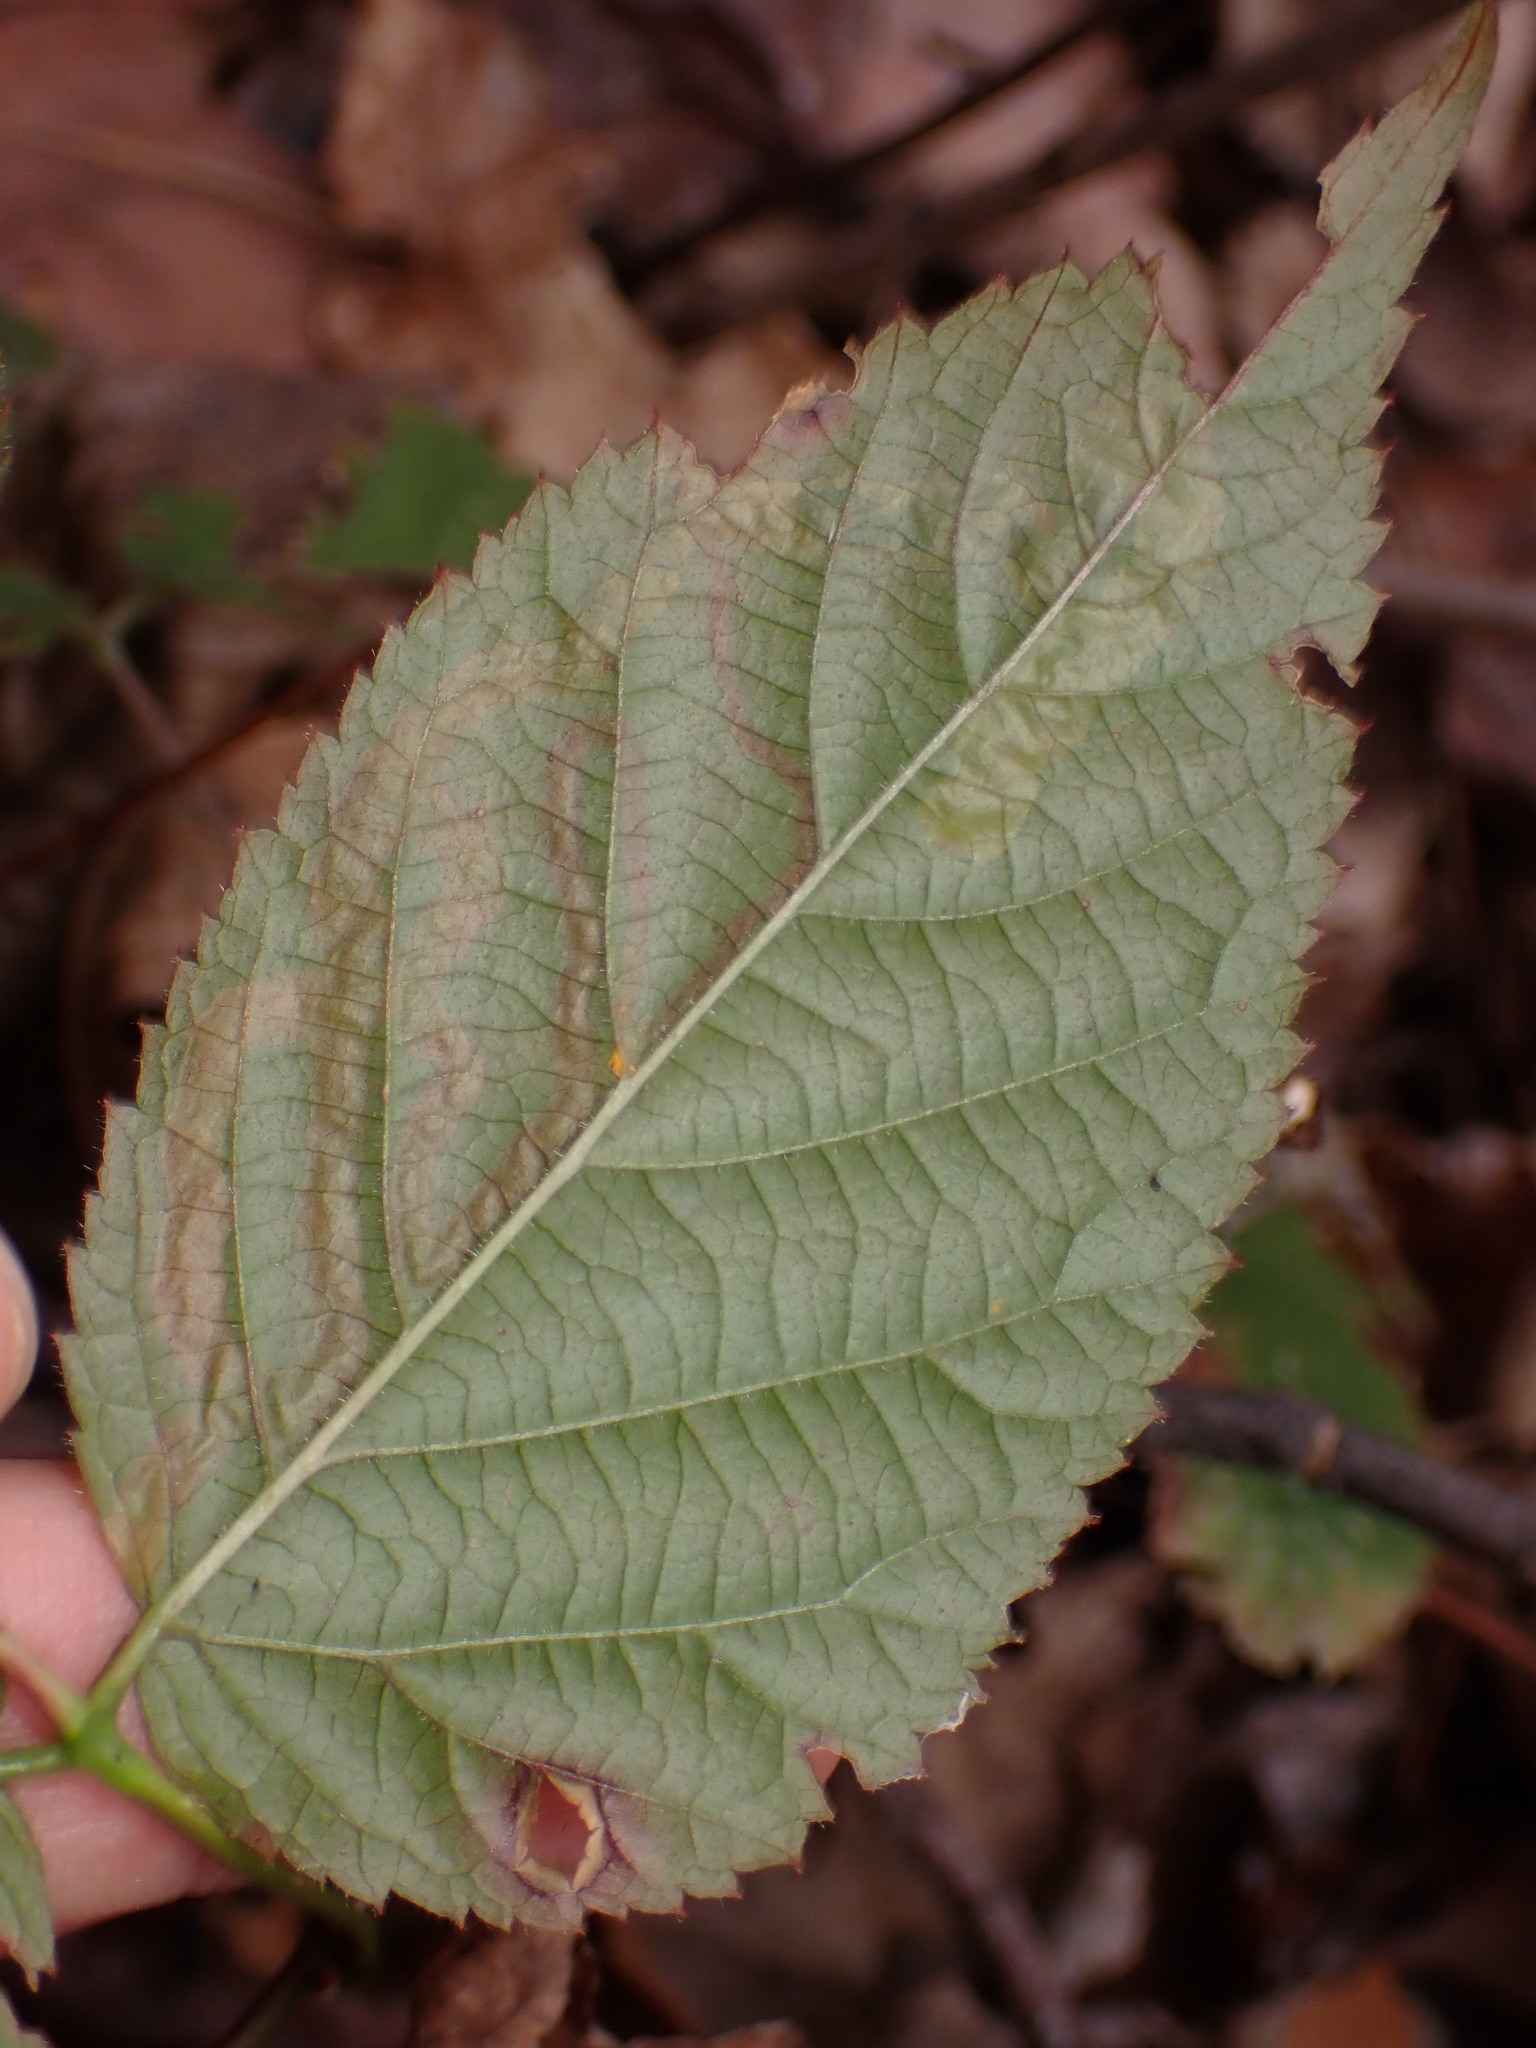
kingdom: Animalia
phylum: Arthropoda
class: Insecta
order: Diptera
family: Agromyzidae
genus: Agromyza
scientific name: Agromyza vockerothi
